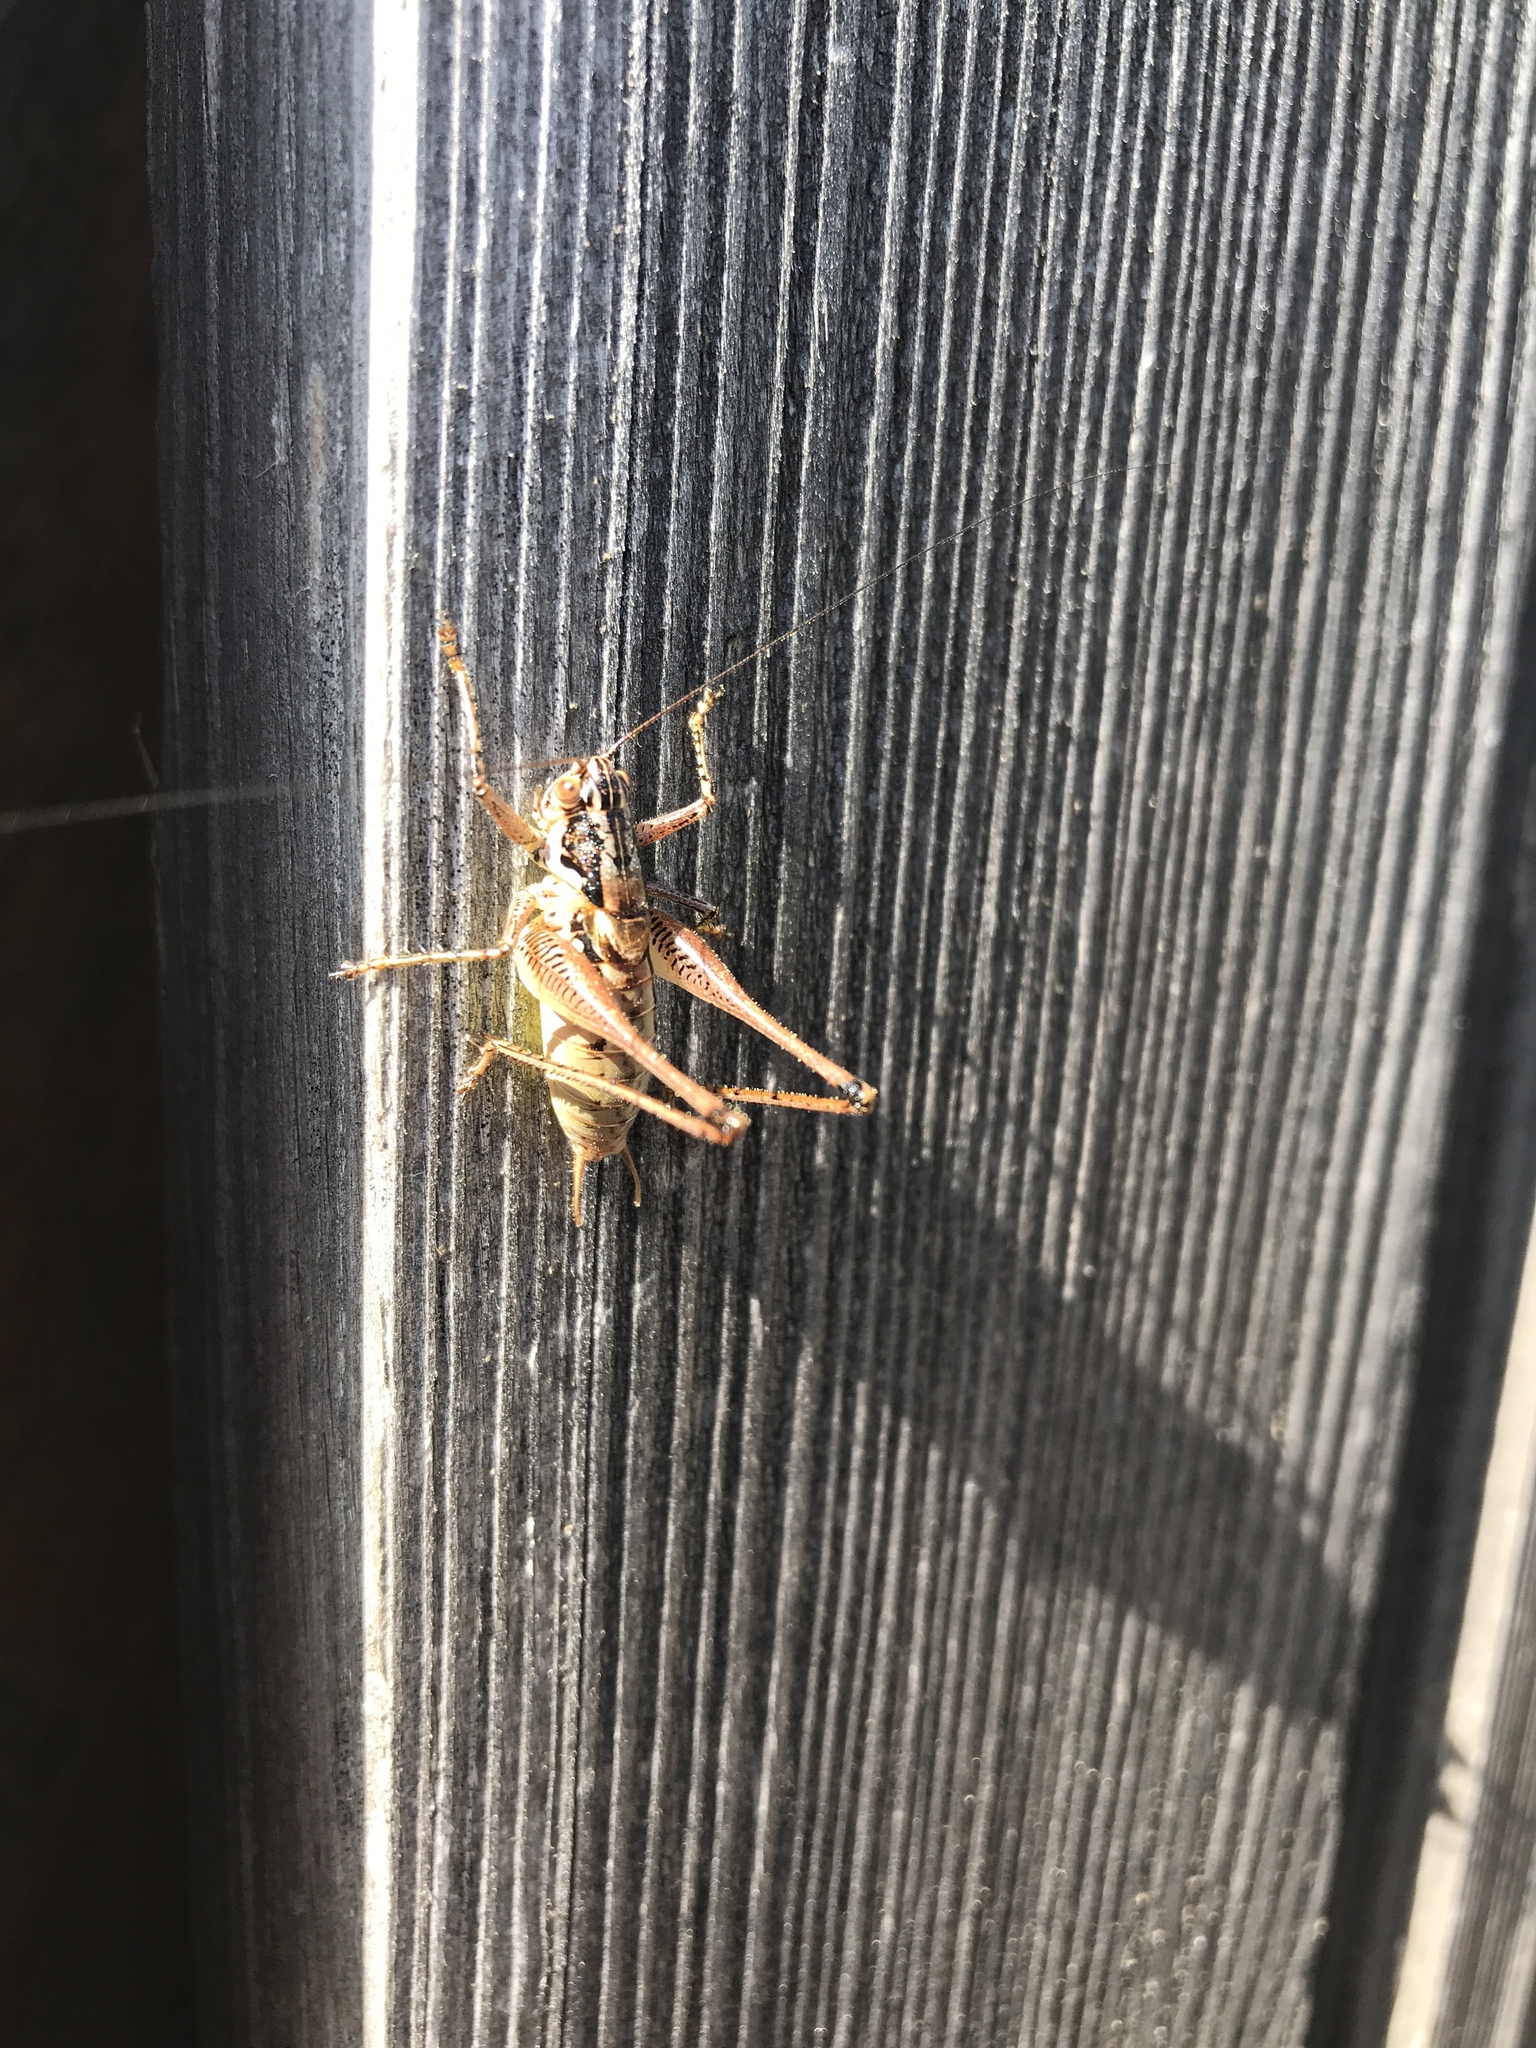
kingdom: Animalia
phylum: Arthropoda
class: Insecta
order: Orthoptera
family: Tettigoniidae
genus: Pachytrachis
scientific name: Pachytrachis striolatus
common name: Striated bush-cricket
